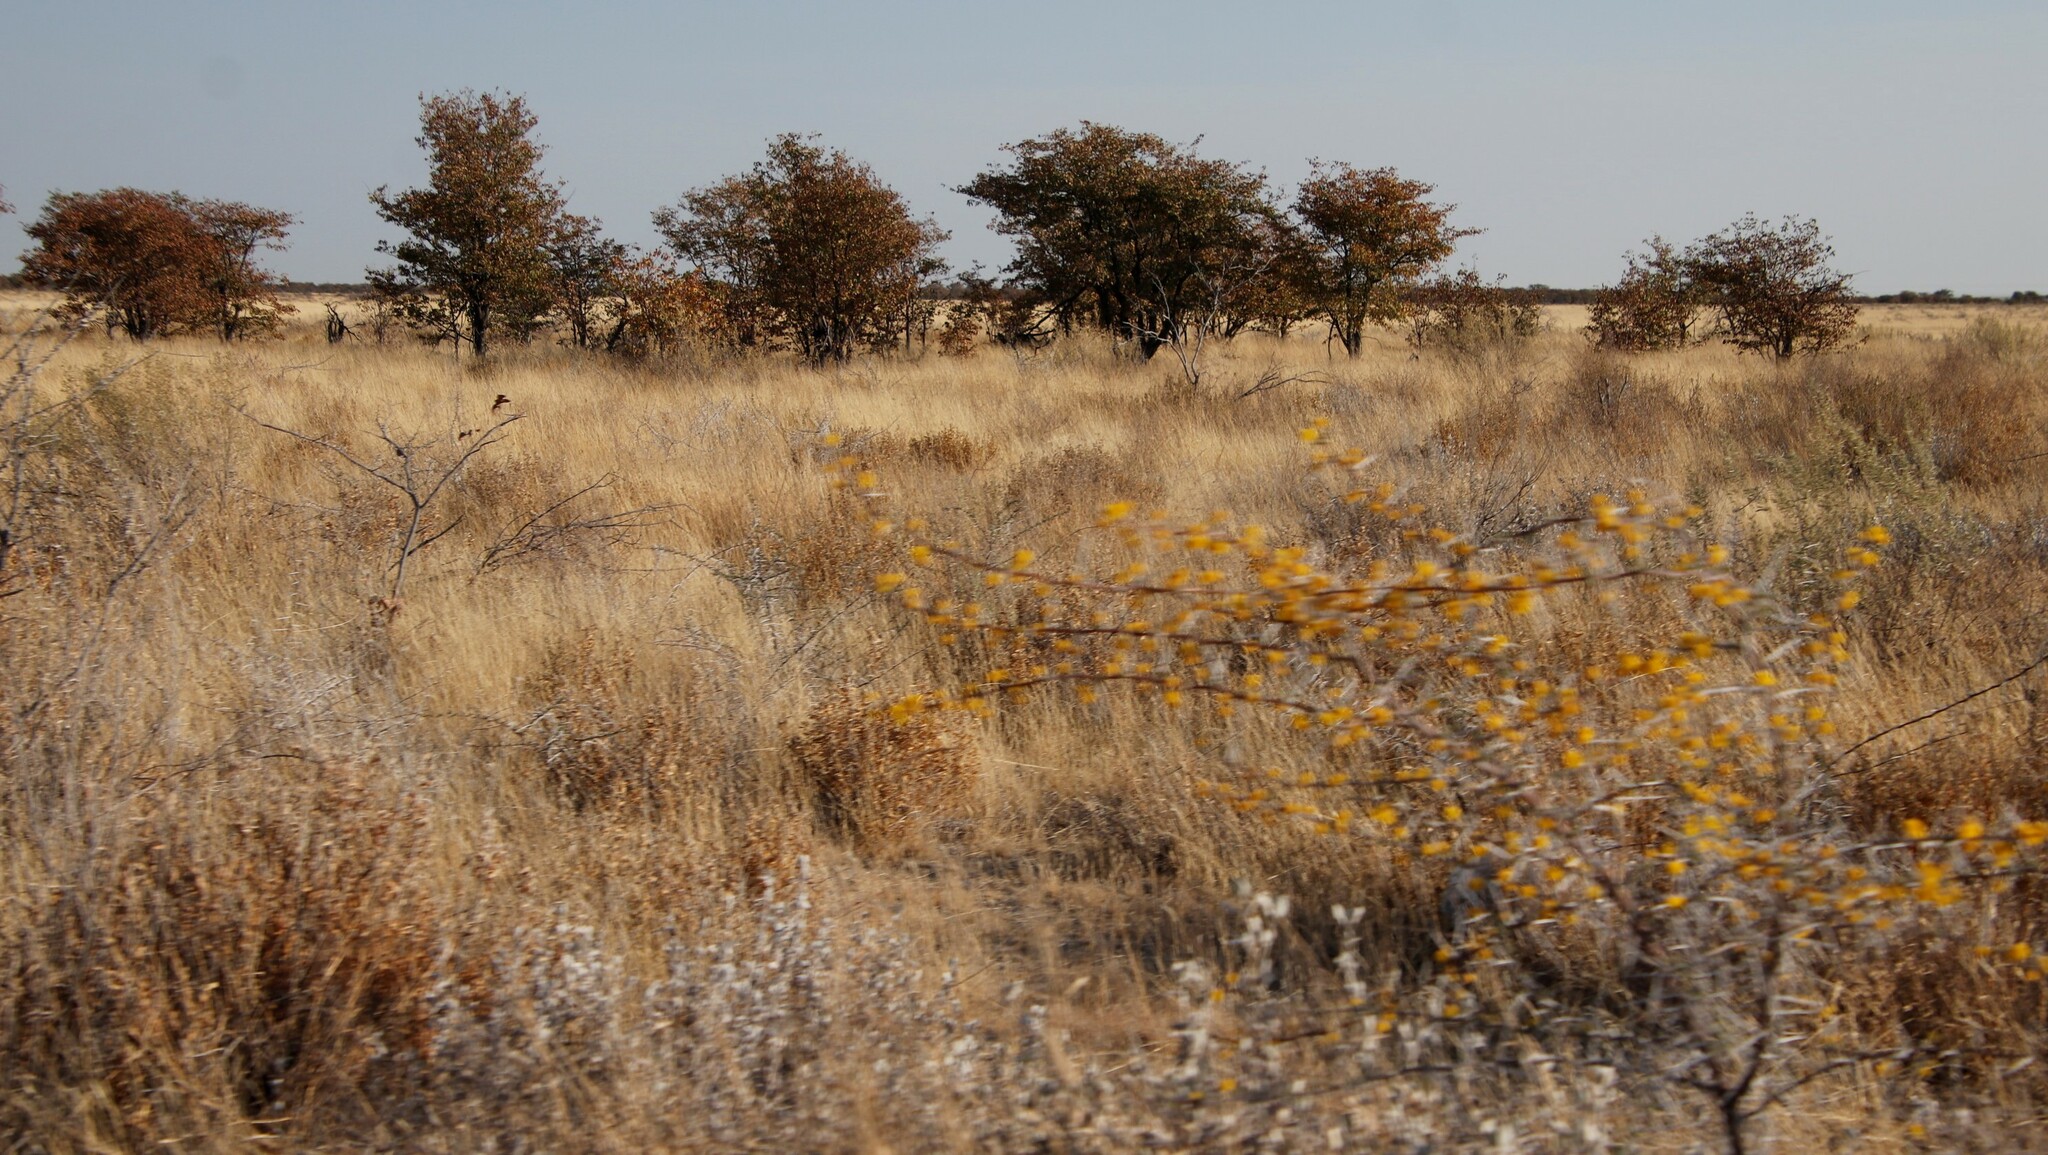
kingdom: Plantae
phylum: Tracheophyta
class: Magnoliopsida
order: Fabales
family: Fabaceae
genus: Colophospermum
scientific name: Colophospermum mopane
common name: Mopane
